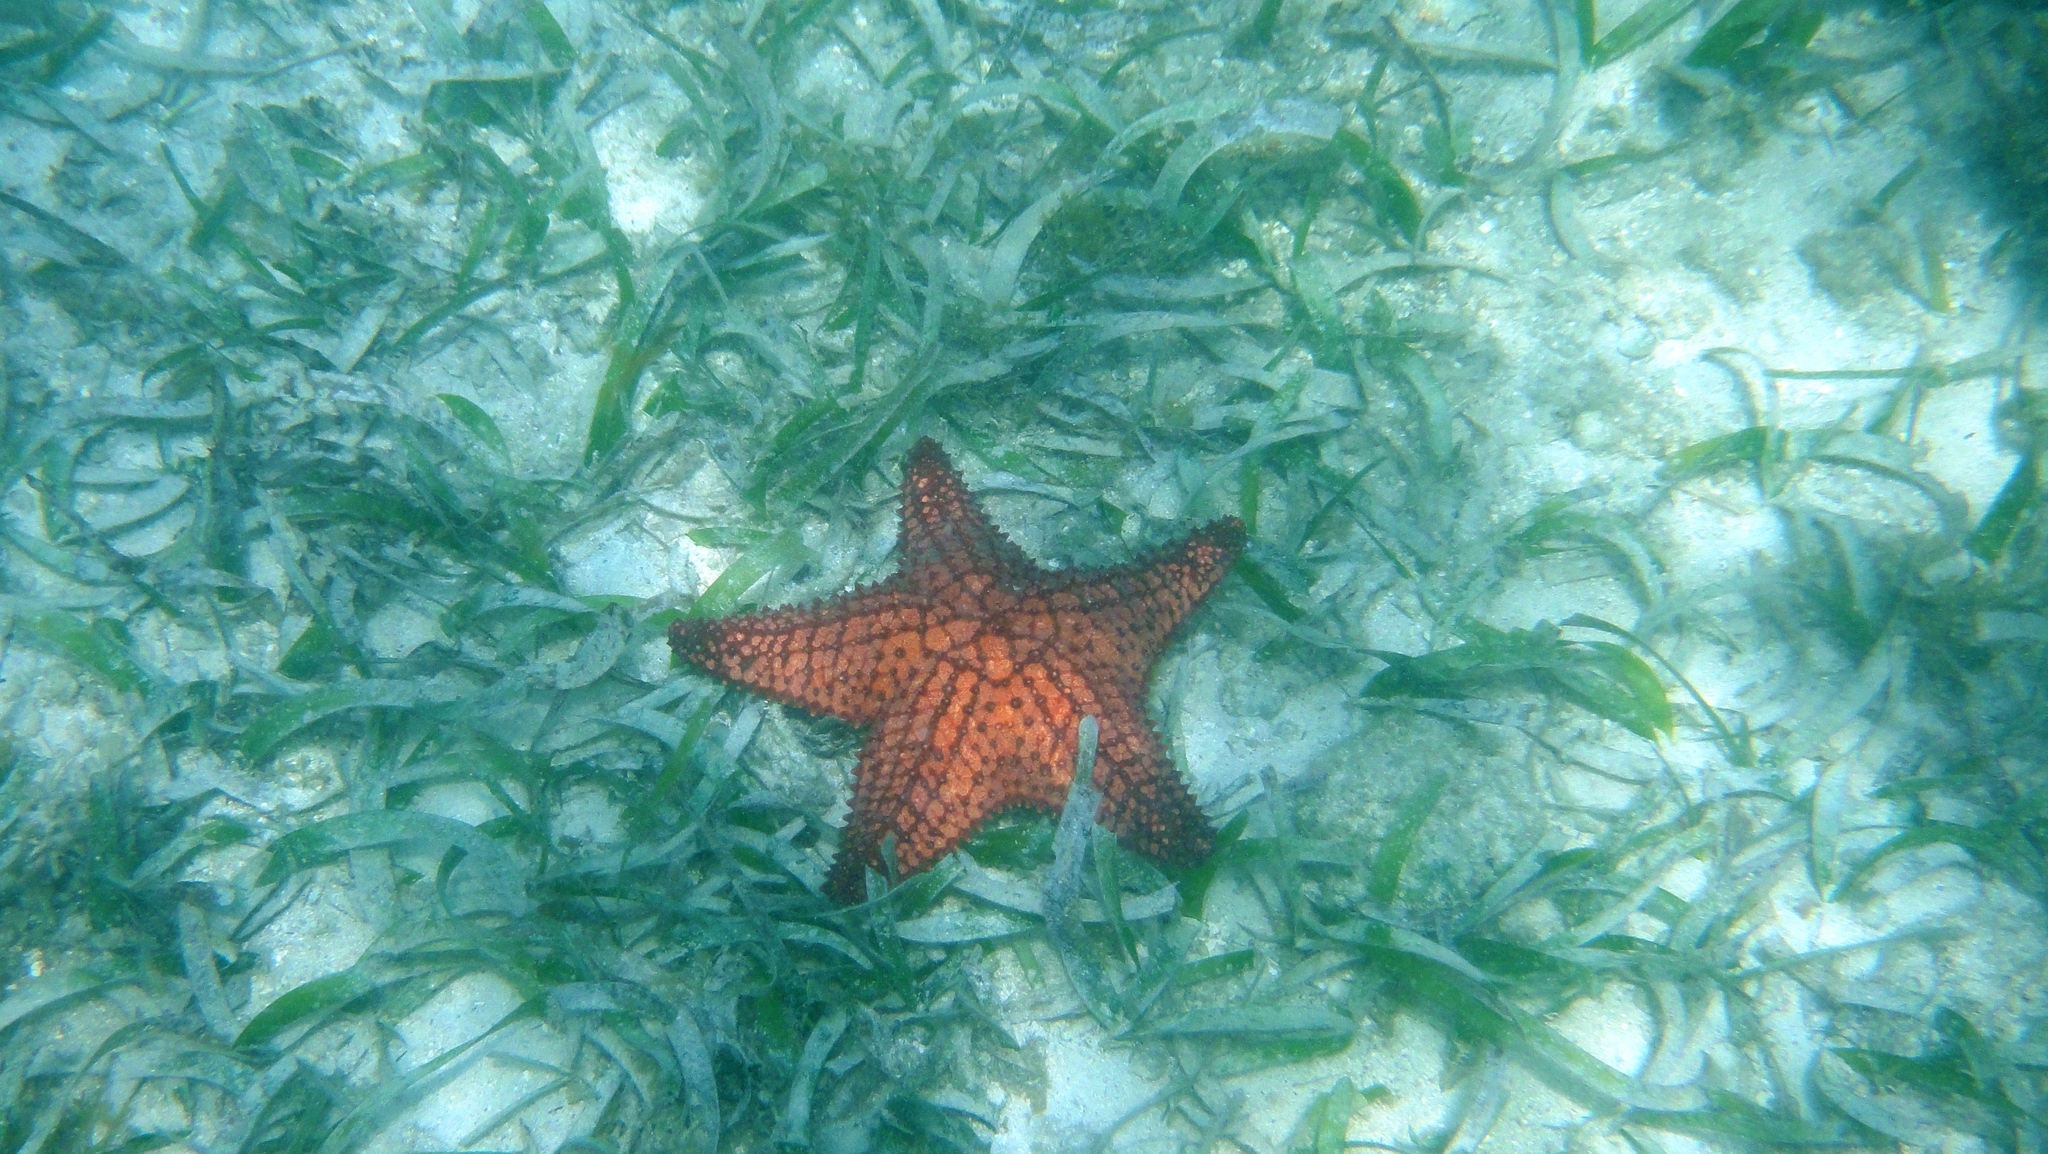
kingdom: Animalia
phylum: Echinodermata
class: Asteroidea
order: Valvatida
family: Oreasteridae
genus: Oreaster
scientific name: Oreaster reticulatus
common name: Cushion sea star
